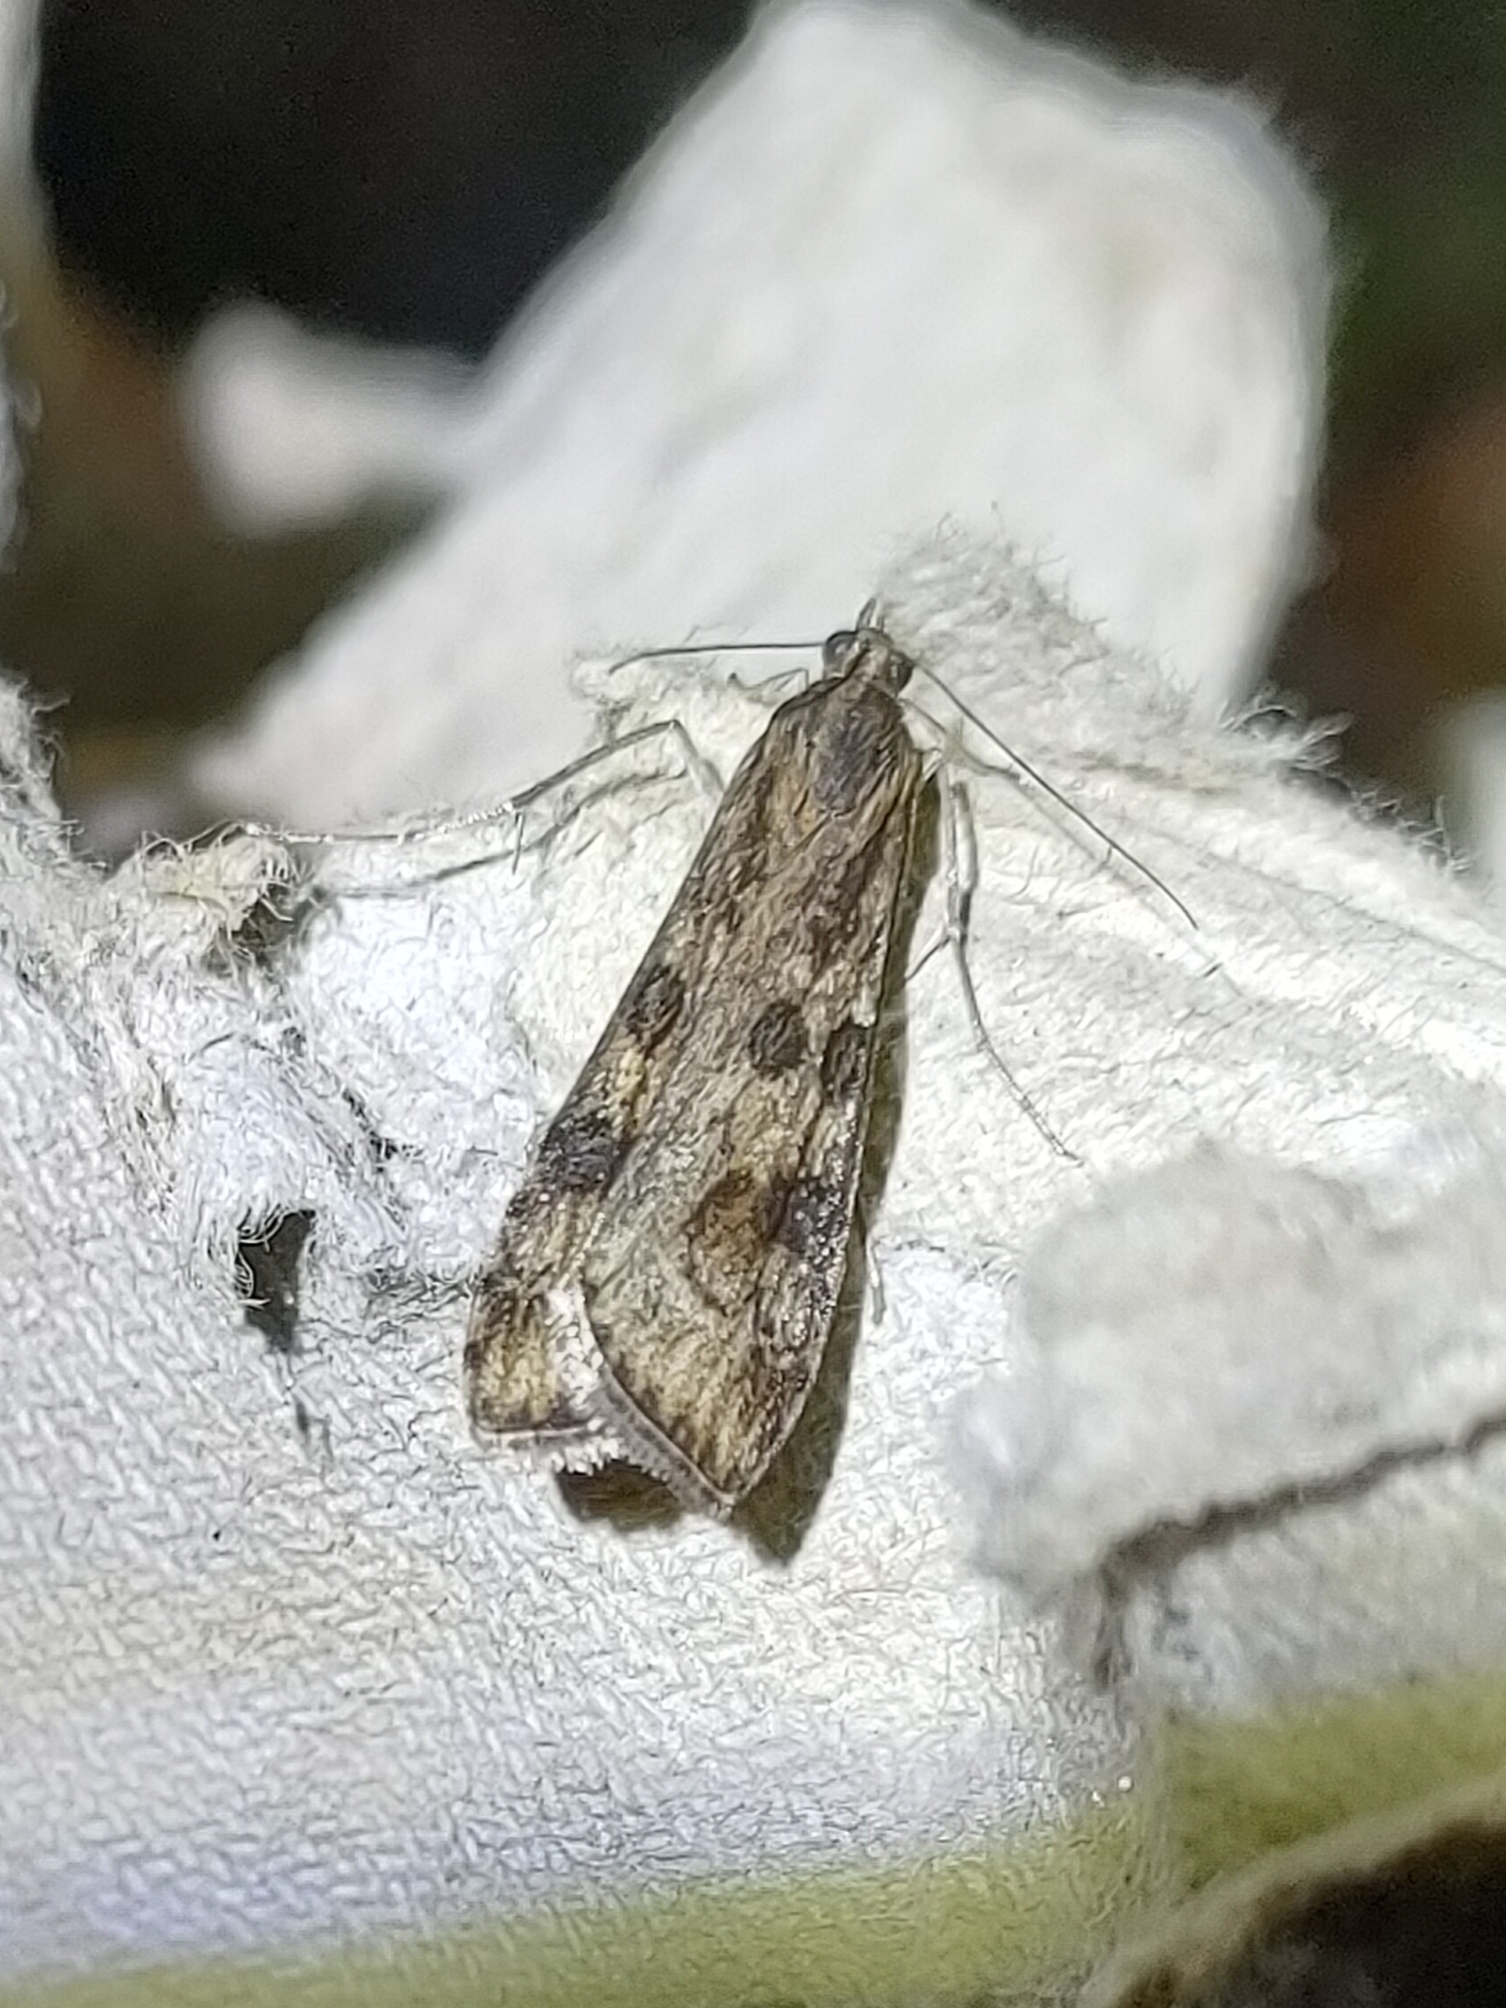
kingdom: Animalia
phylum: Arthropoda
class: Insecta
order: Lepidoptera
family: Crambidae
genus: Nomophila
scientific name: Nomophila noctuella
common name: Rush veneer
